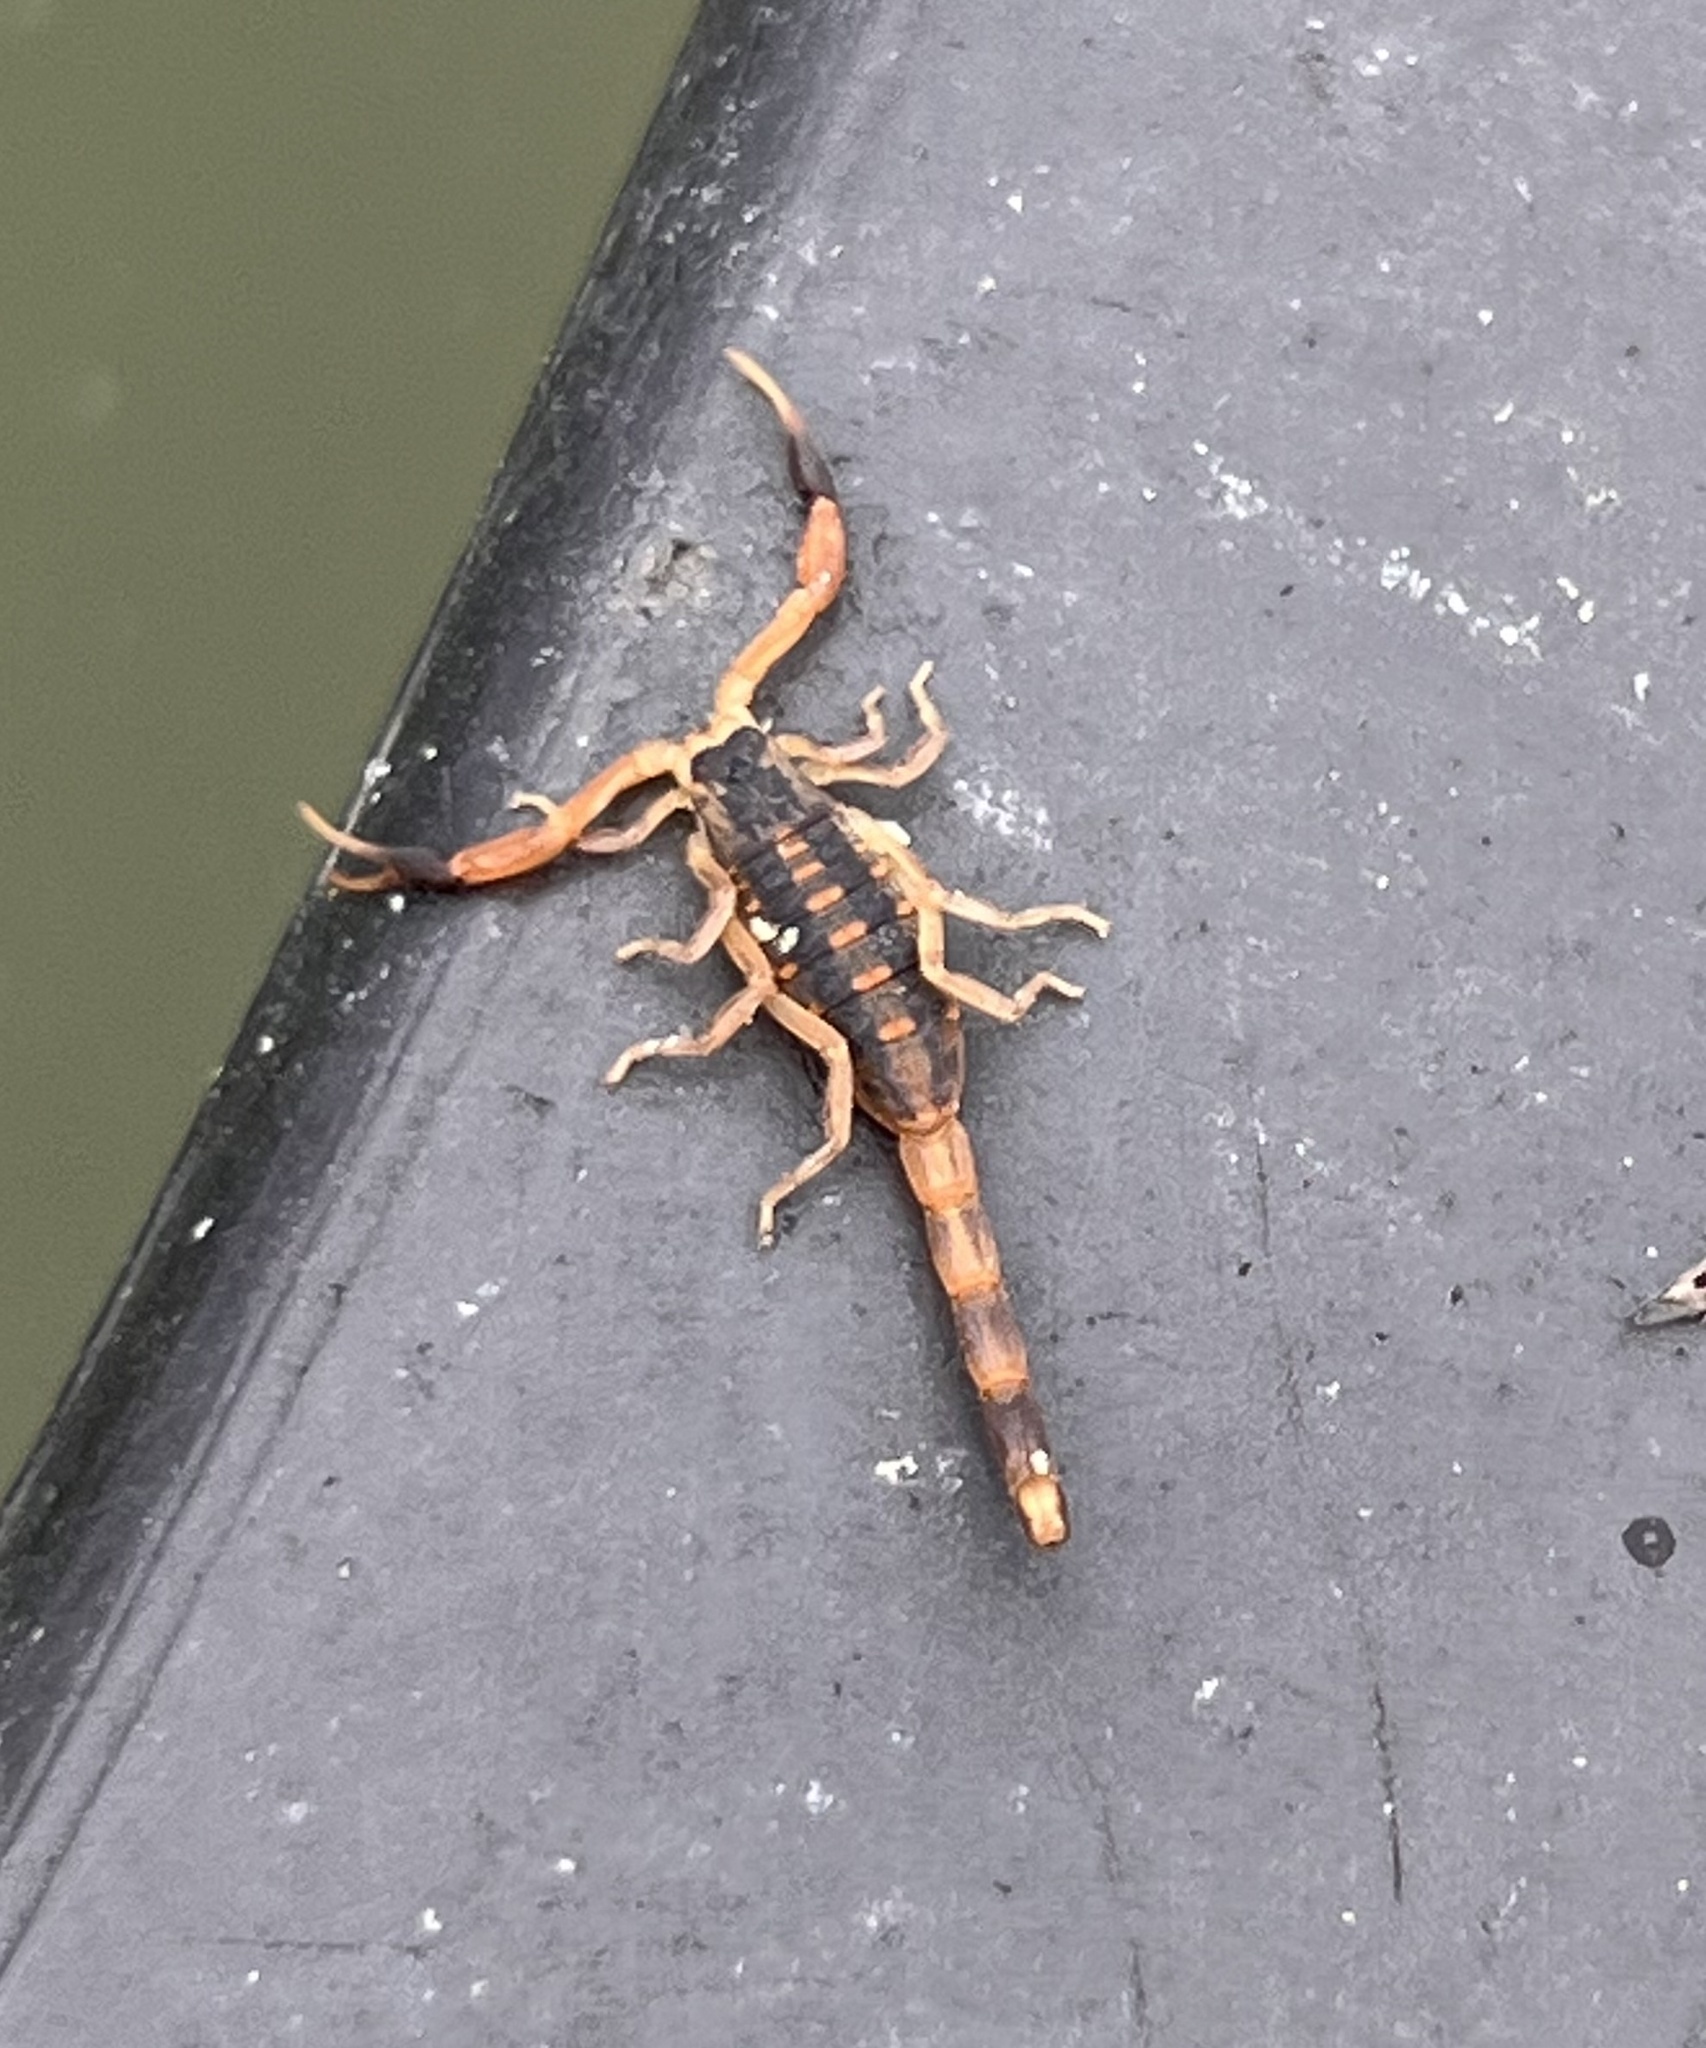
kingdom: Animalia
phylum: Arthropoda
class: Arachnida
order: Scorpiones
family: Buthidae
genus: Centruroides
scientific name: Centruroides vittatus
